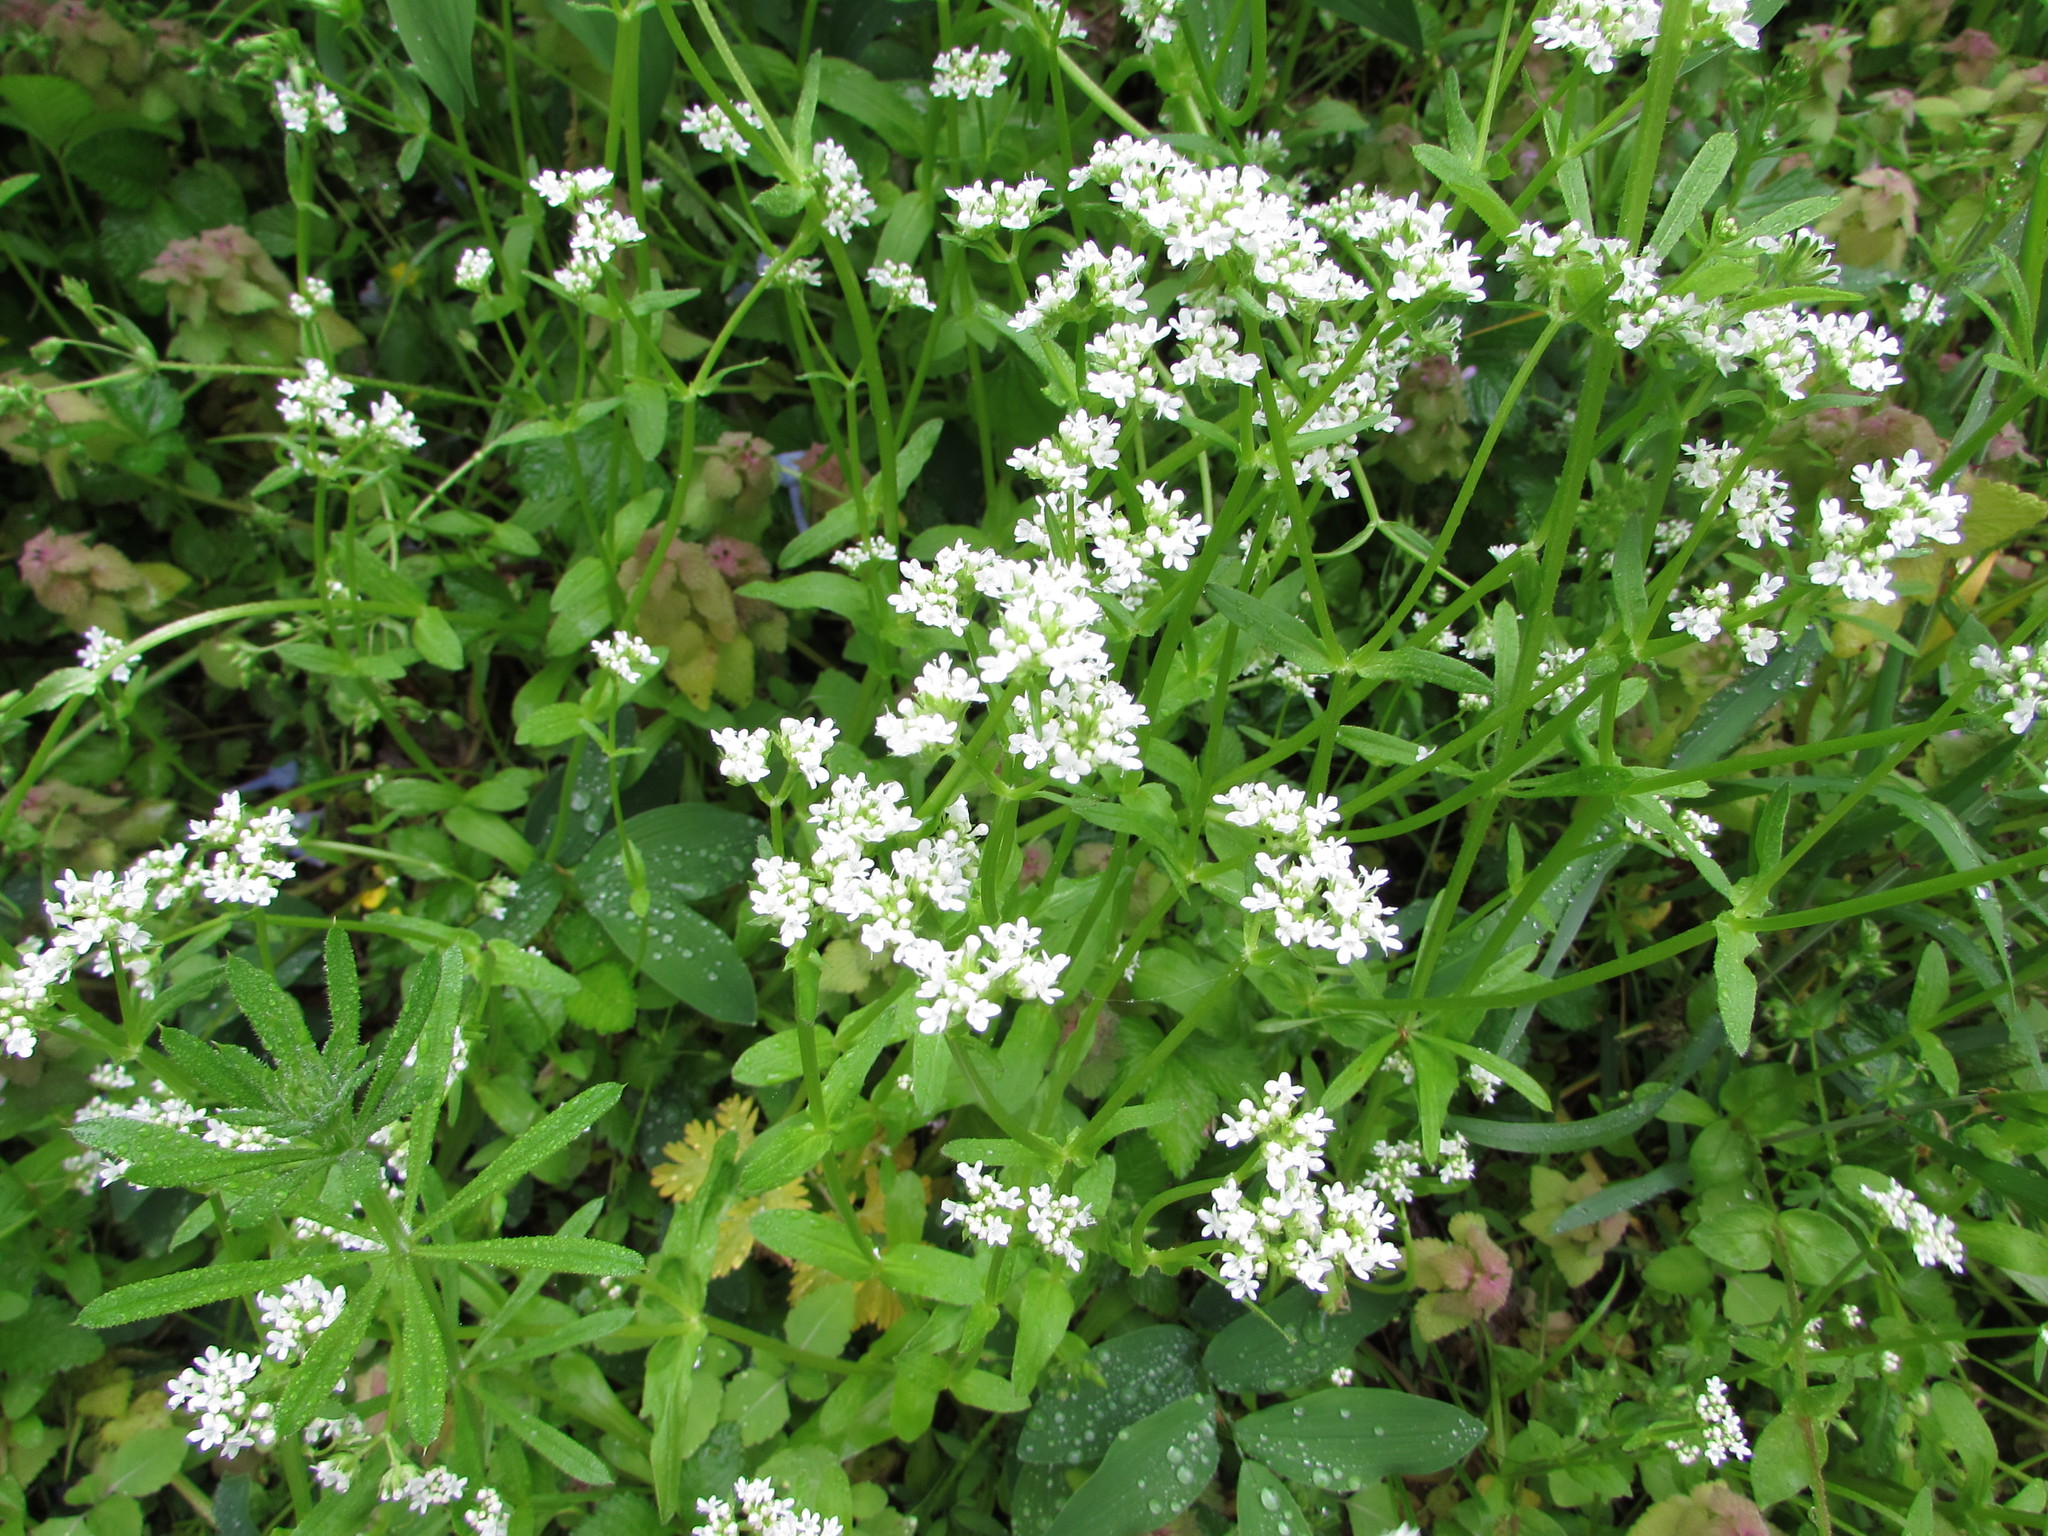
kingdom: Plantae
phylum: Tracheophyta
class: Magnoliopsida
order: Dipsacales
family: Caprifoliaceae
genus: Valerianella
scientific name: Valerianella umbilicata
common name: Wood's cornsalad
